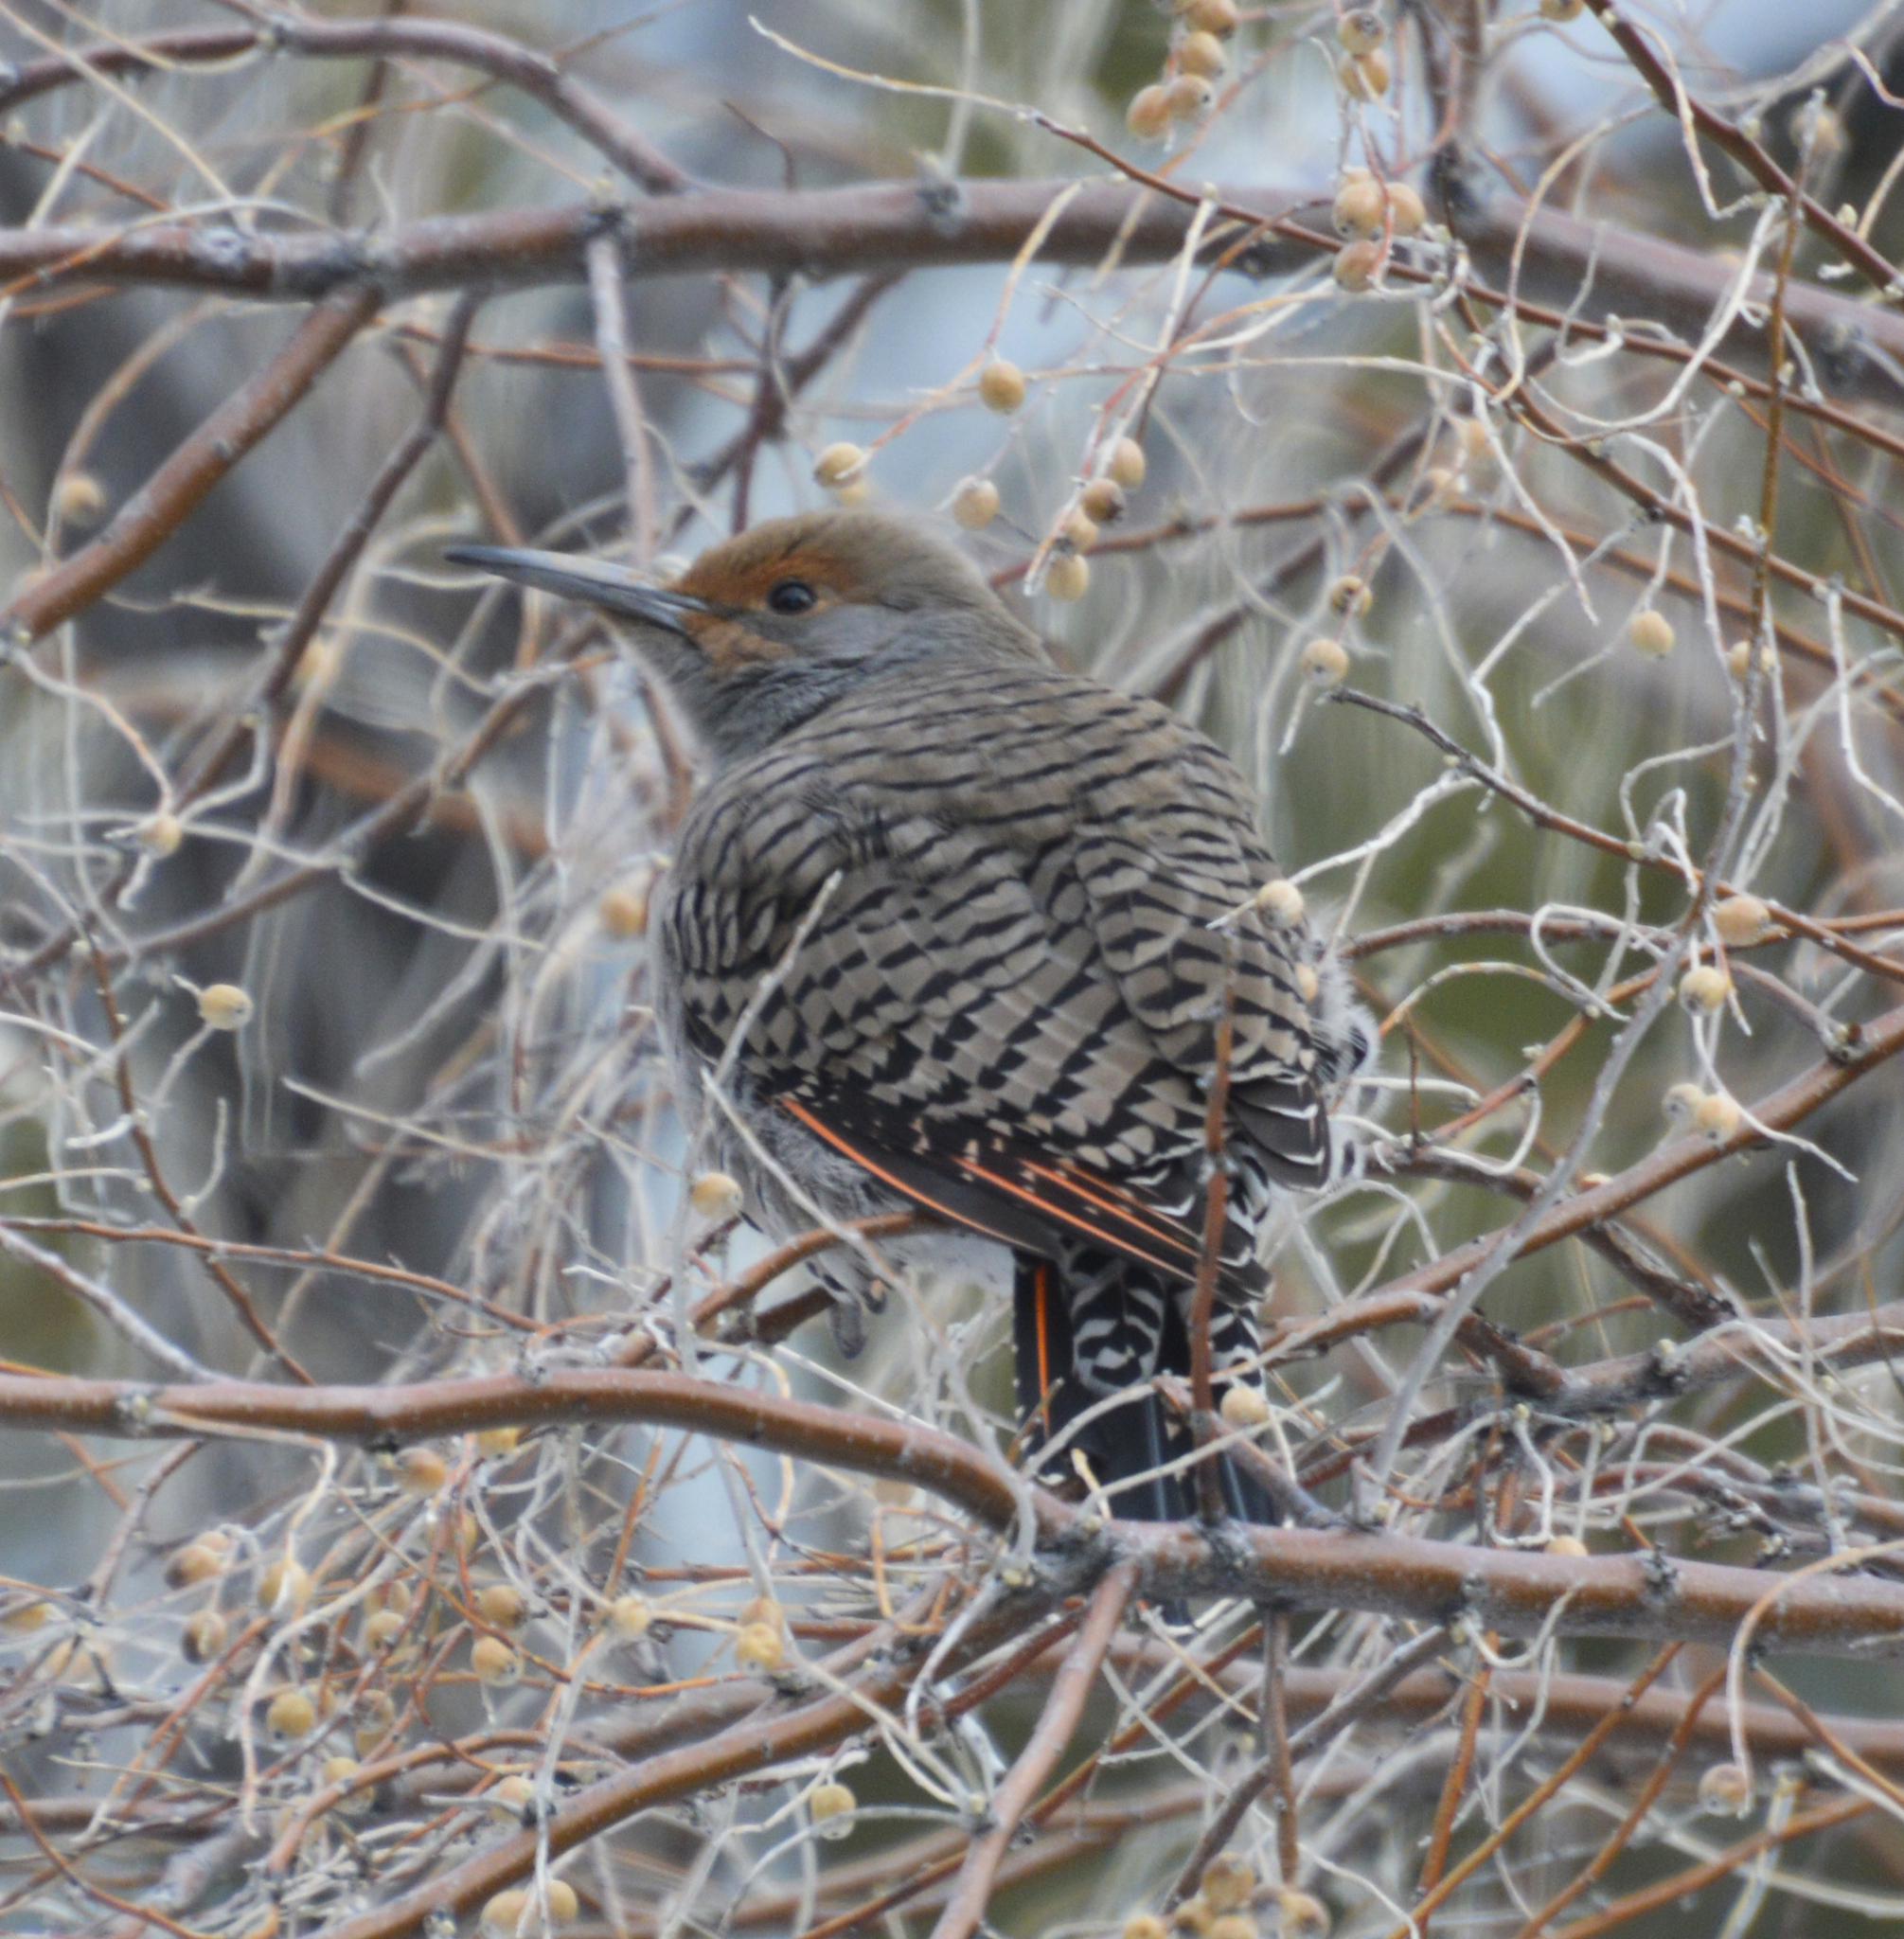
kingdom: Animalia
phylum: Chordata
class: Aves
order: Piciformes
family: Picidae
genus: Colaptes
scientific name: Colaptes auratus
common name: Northern flicker
